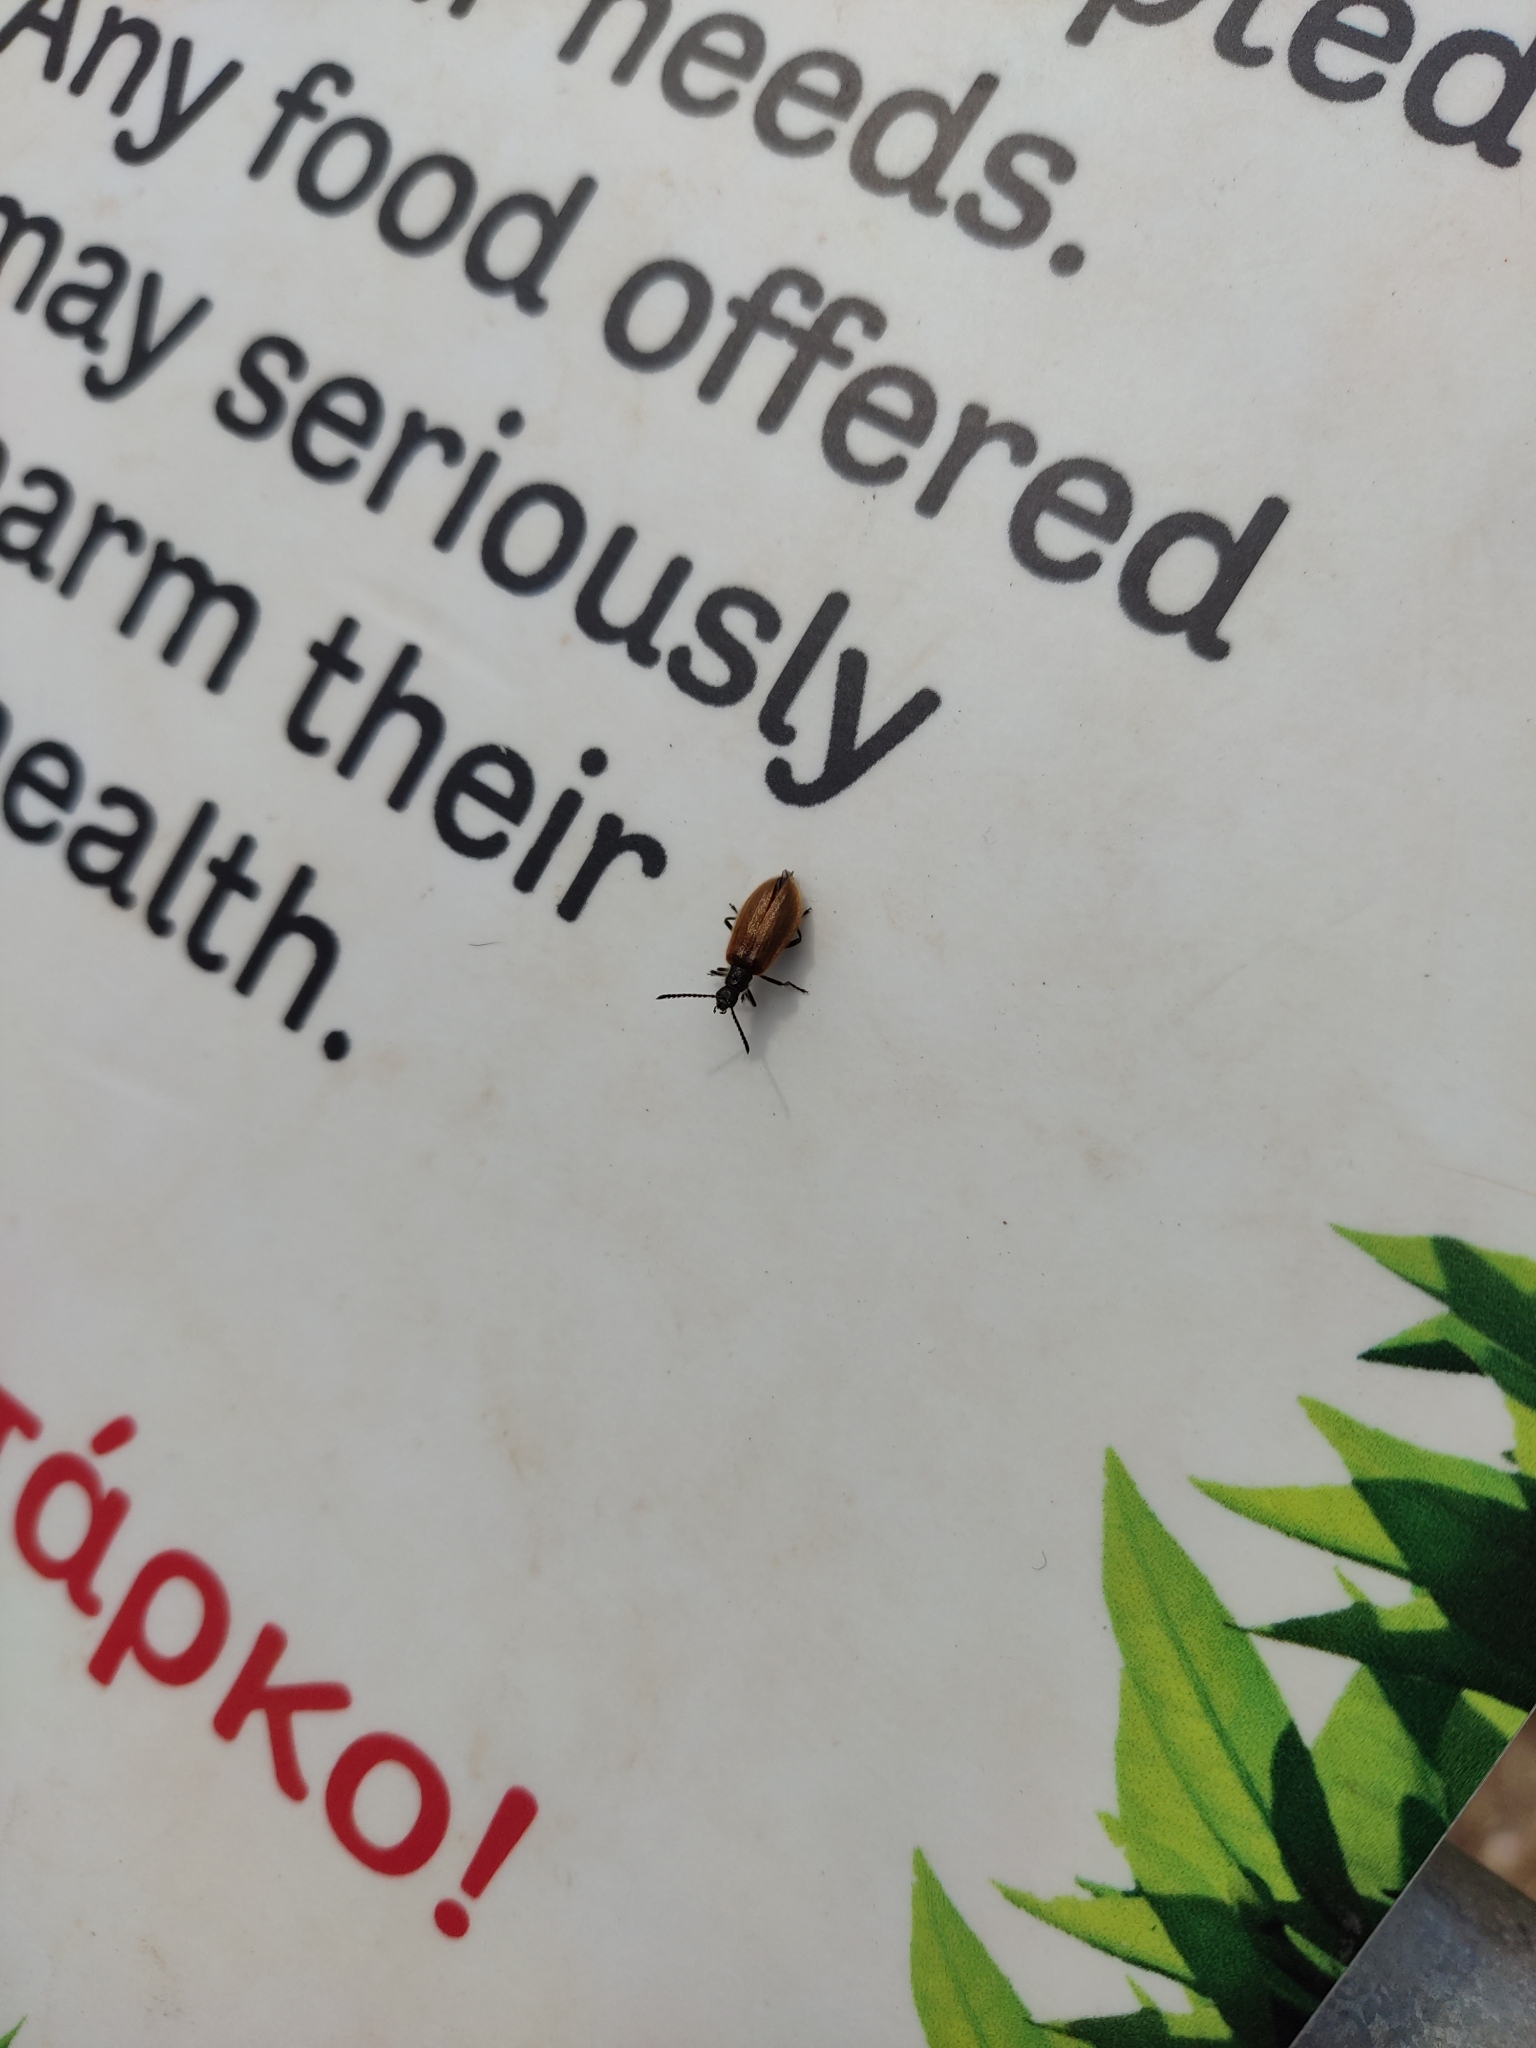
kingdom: Animalia
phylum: Arthropoda
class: Insecta
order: Coleoptera
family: Tenebrionidae
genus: Lagria
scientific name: Lagria hirta
